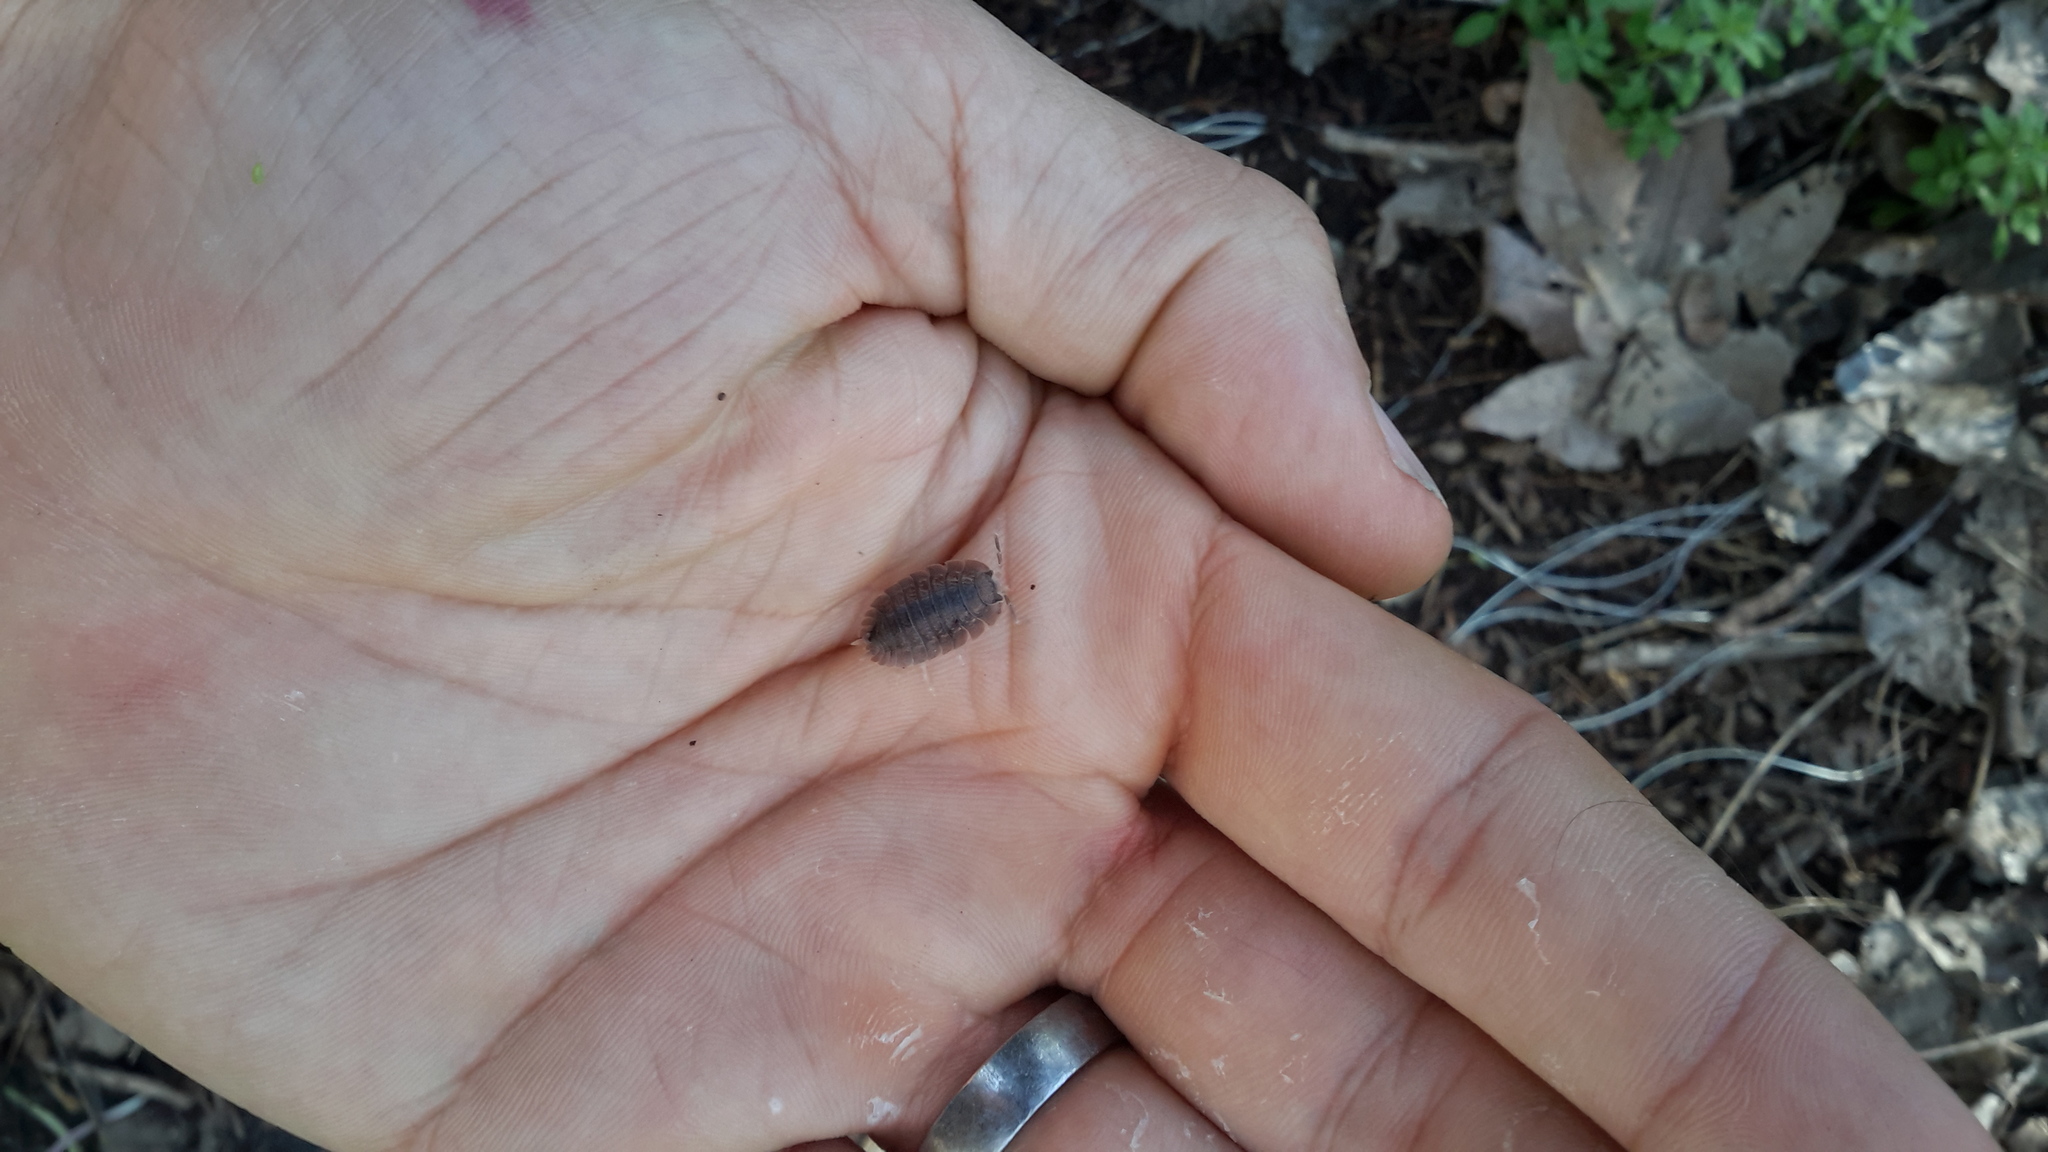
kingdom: Animalia
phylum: Arthropoda
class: Malacostraca
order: Isopoda
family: Porcellionidae
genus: Porcellio
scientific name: Porcellio dilatatus
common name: Isopod
